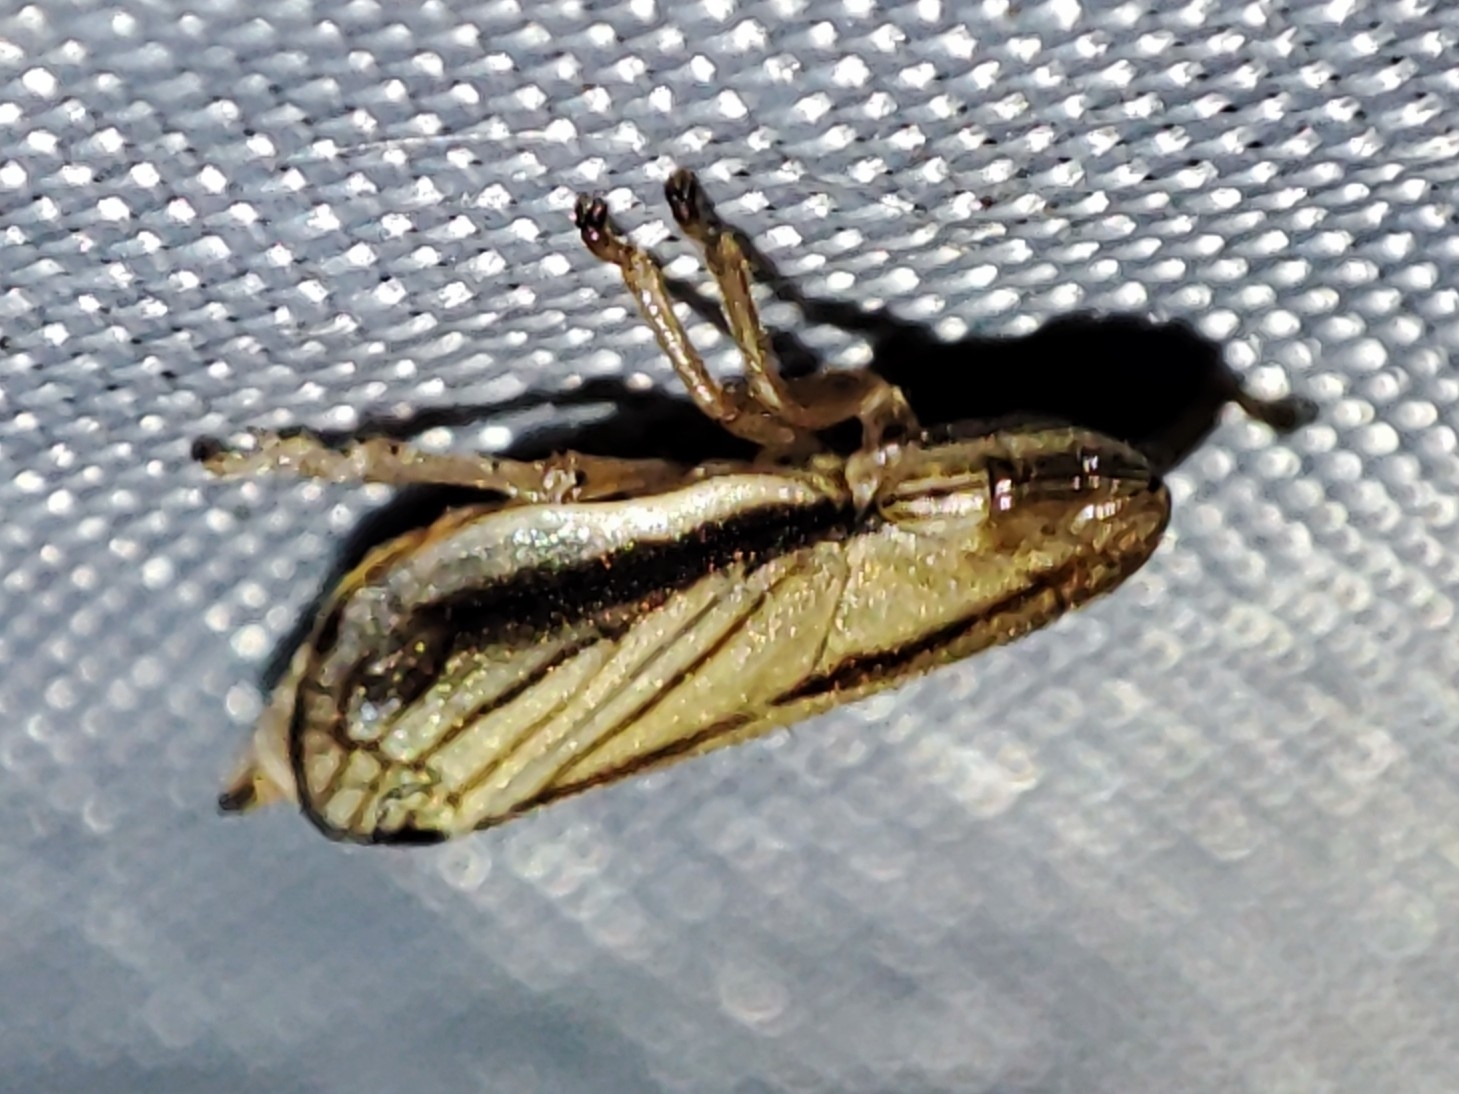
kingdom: Animalia
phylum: Arthropoda
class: Insecta
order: Hemiptera
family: Aphrophoridae
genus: Philaenus
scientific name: Philaenus spumarius
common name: Meadow spittlebug
